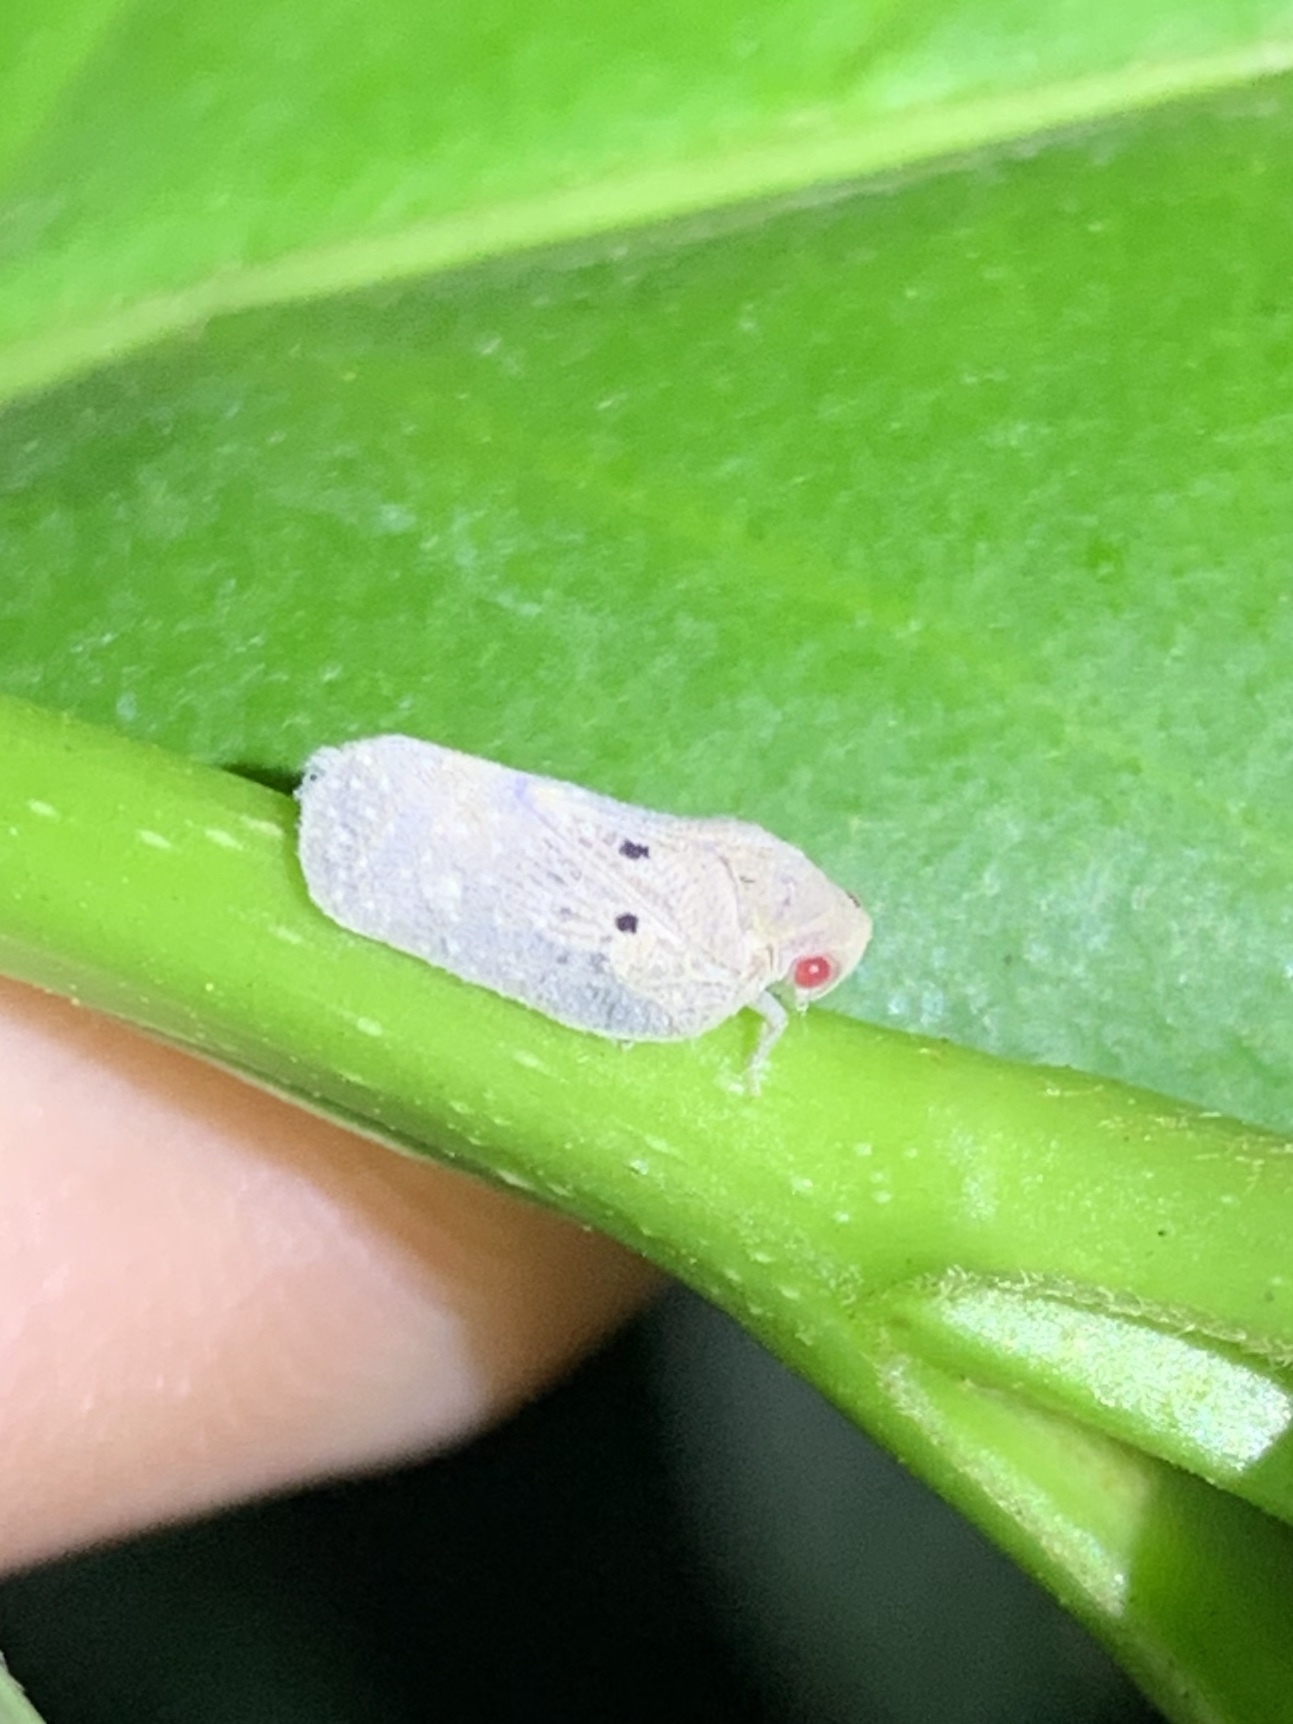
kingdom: Animalia
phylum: Arthropoda
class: Insecta
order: Hemiptera
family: Flatidae
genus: Melormenis
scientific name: Melormenis basalis
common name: Puerto rican planthopper
